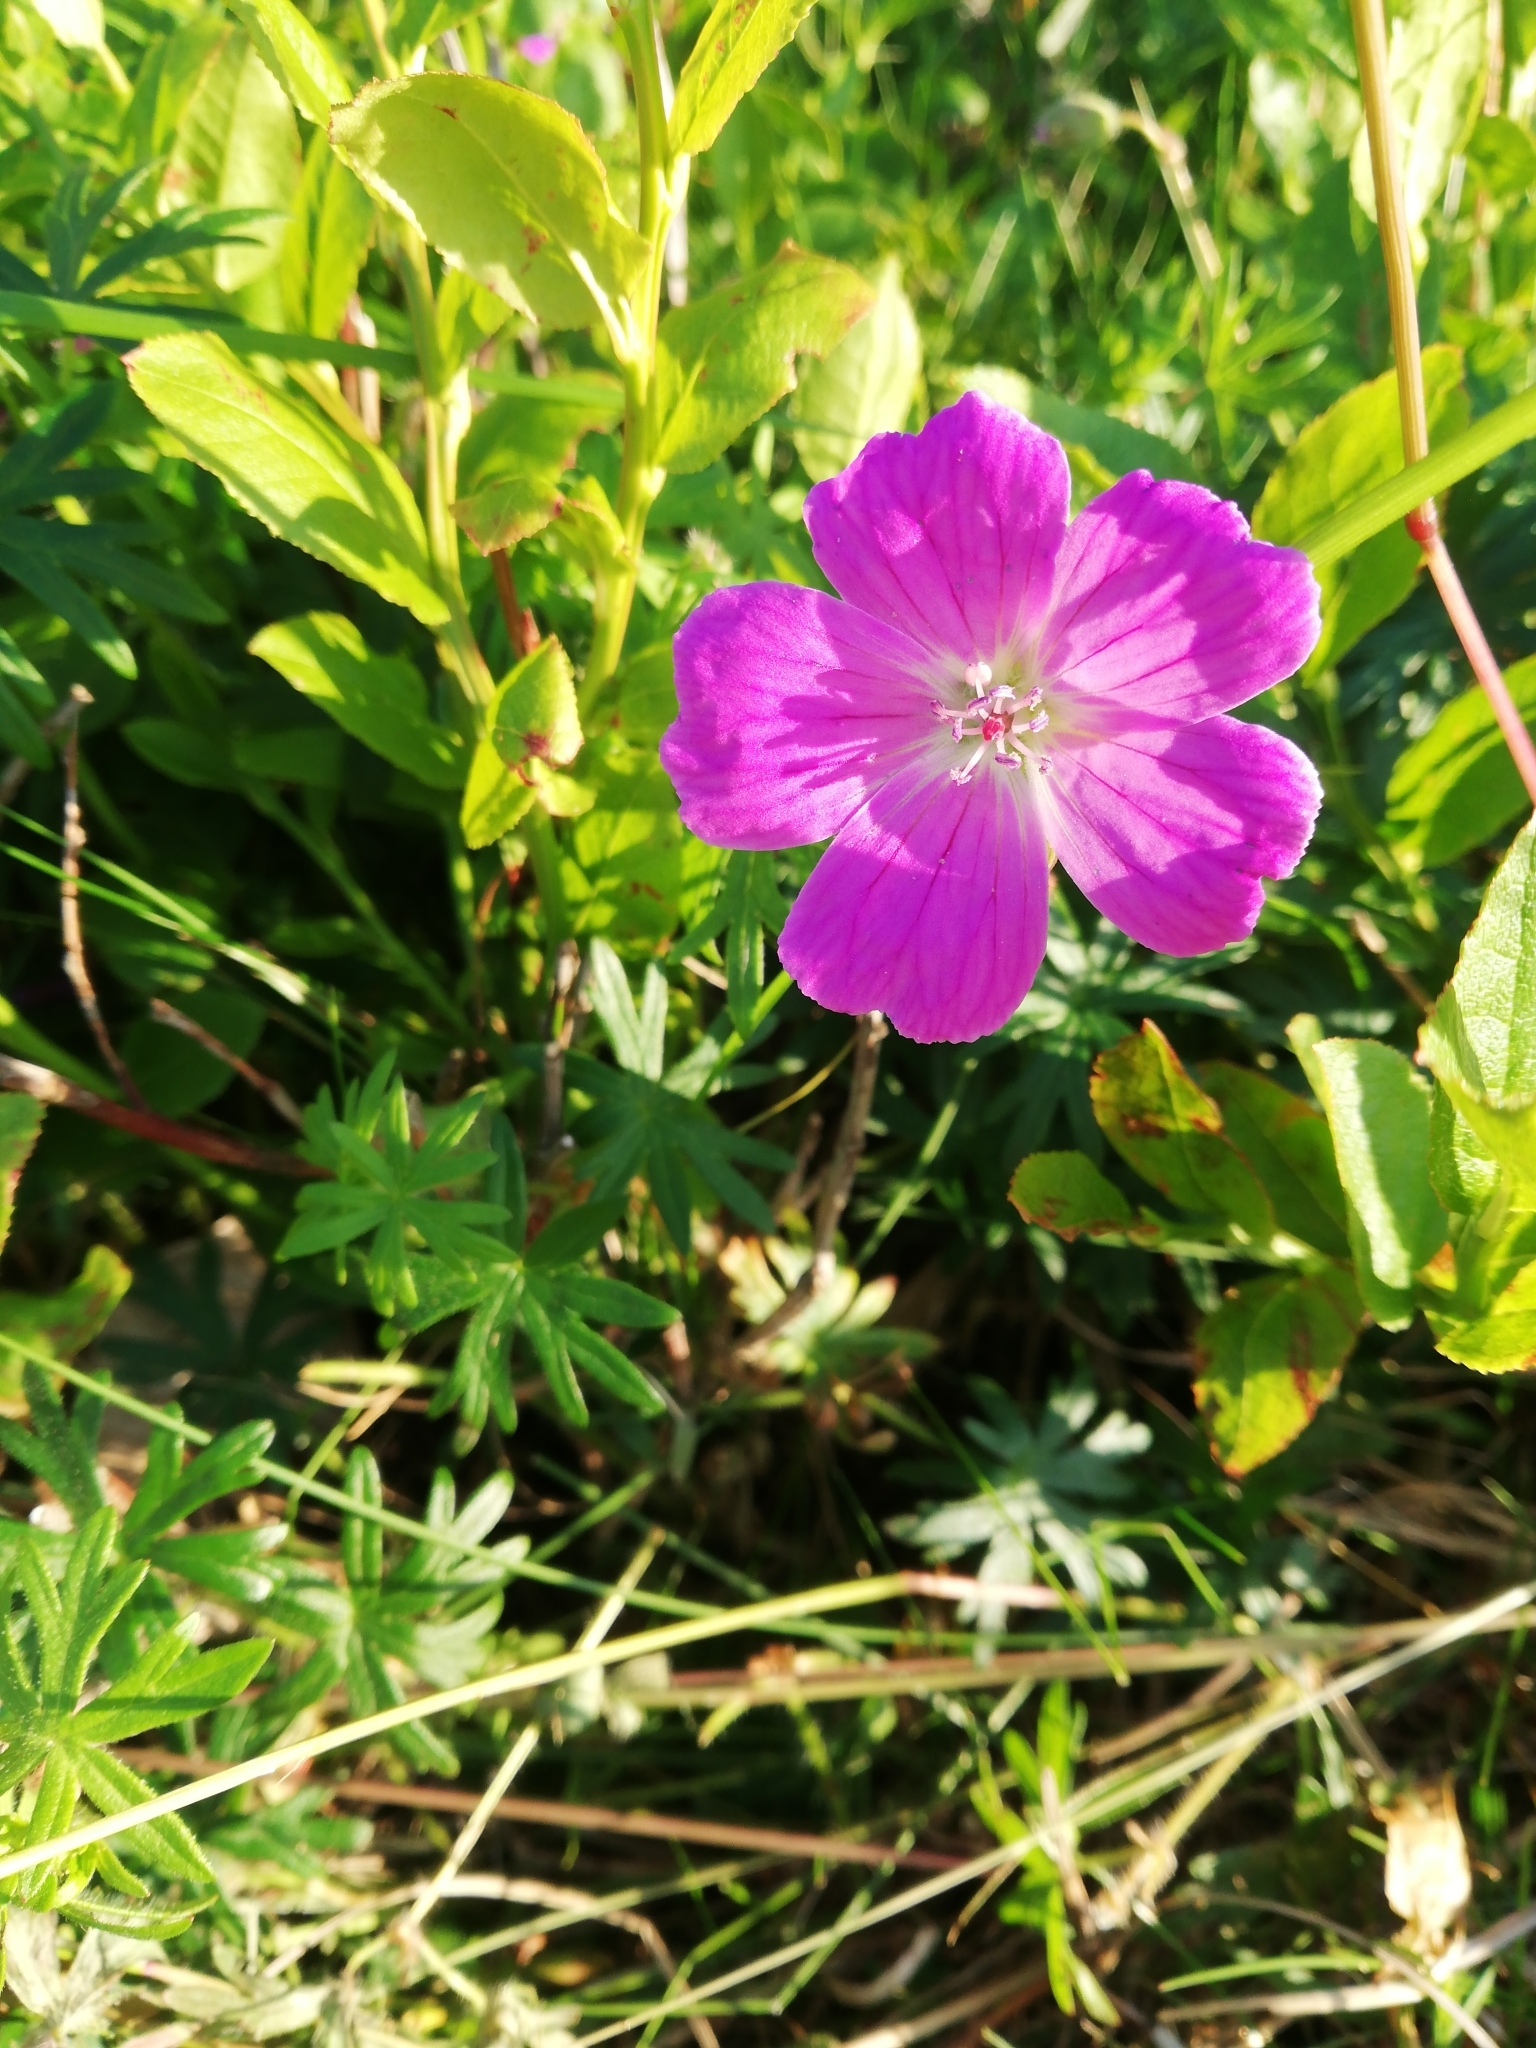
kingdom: Plantae
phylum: Tracheophyta
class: Magnoliopsida
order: Geraniales
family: Geraniaceae
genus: Geranium
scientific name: Geranium sanguineum
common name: Bloody crane's-bill
